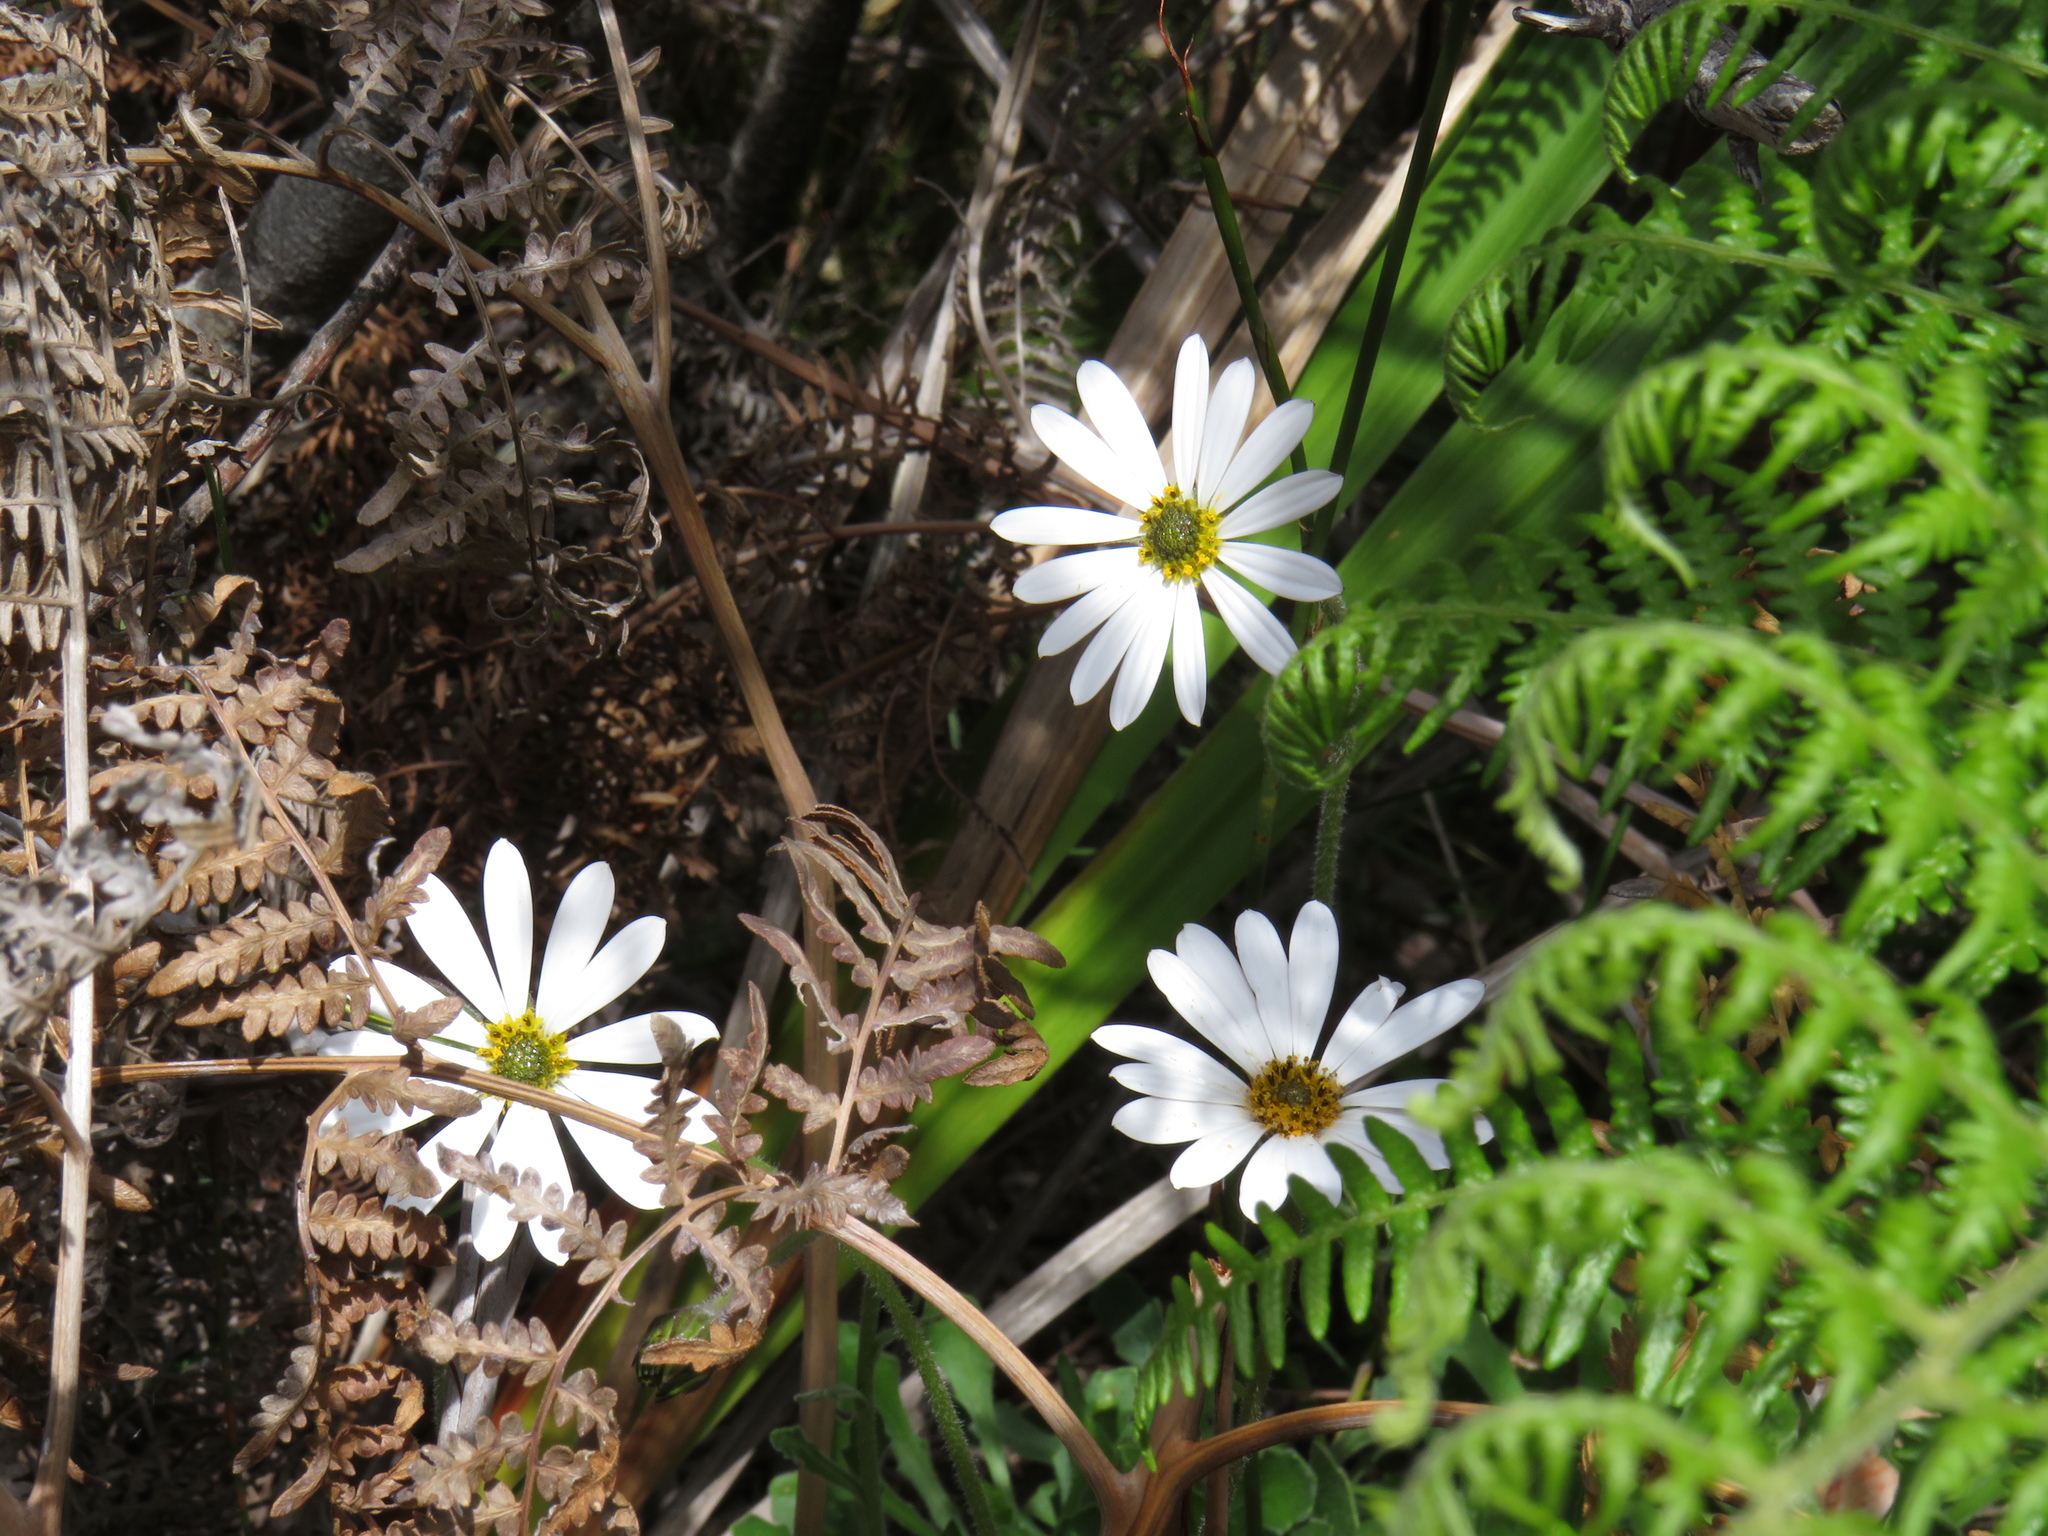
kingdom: Plantae
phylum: Tracheophyta
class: Magnoliopsida
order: Asterales
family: Asteraceae
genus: Dimorphotheca
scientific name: Dimorphotheca nudicaulis
